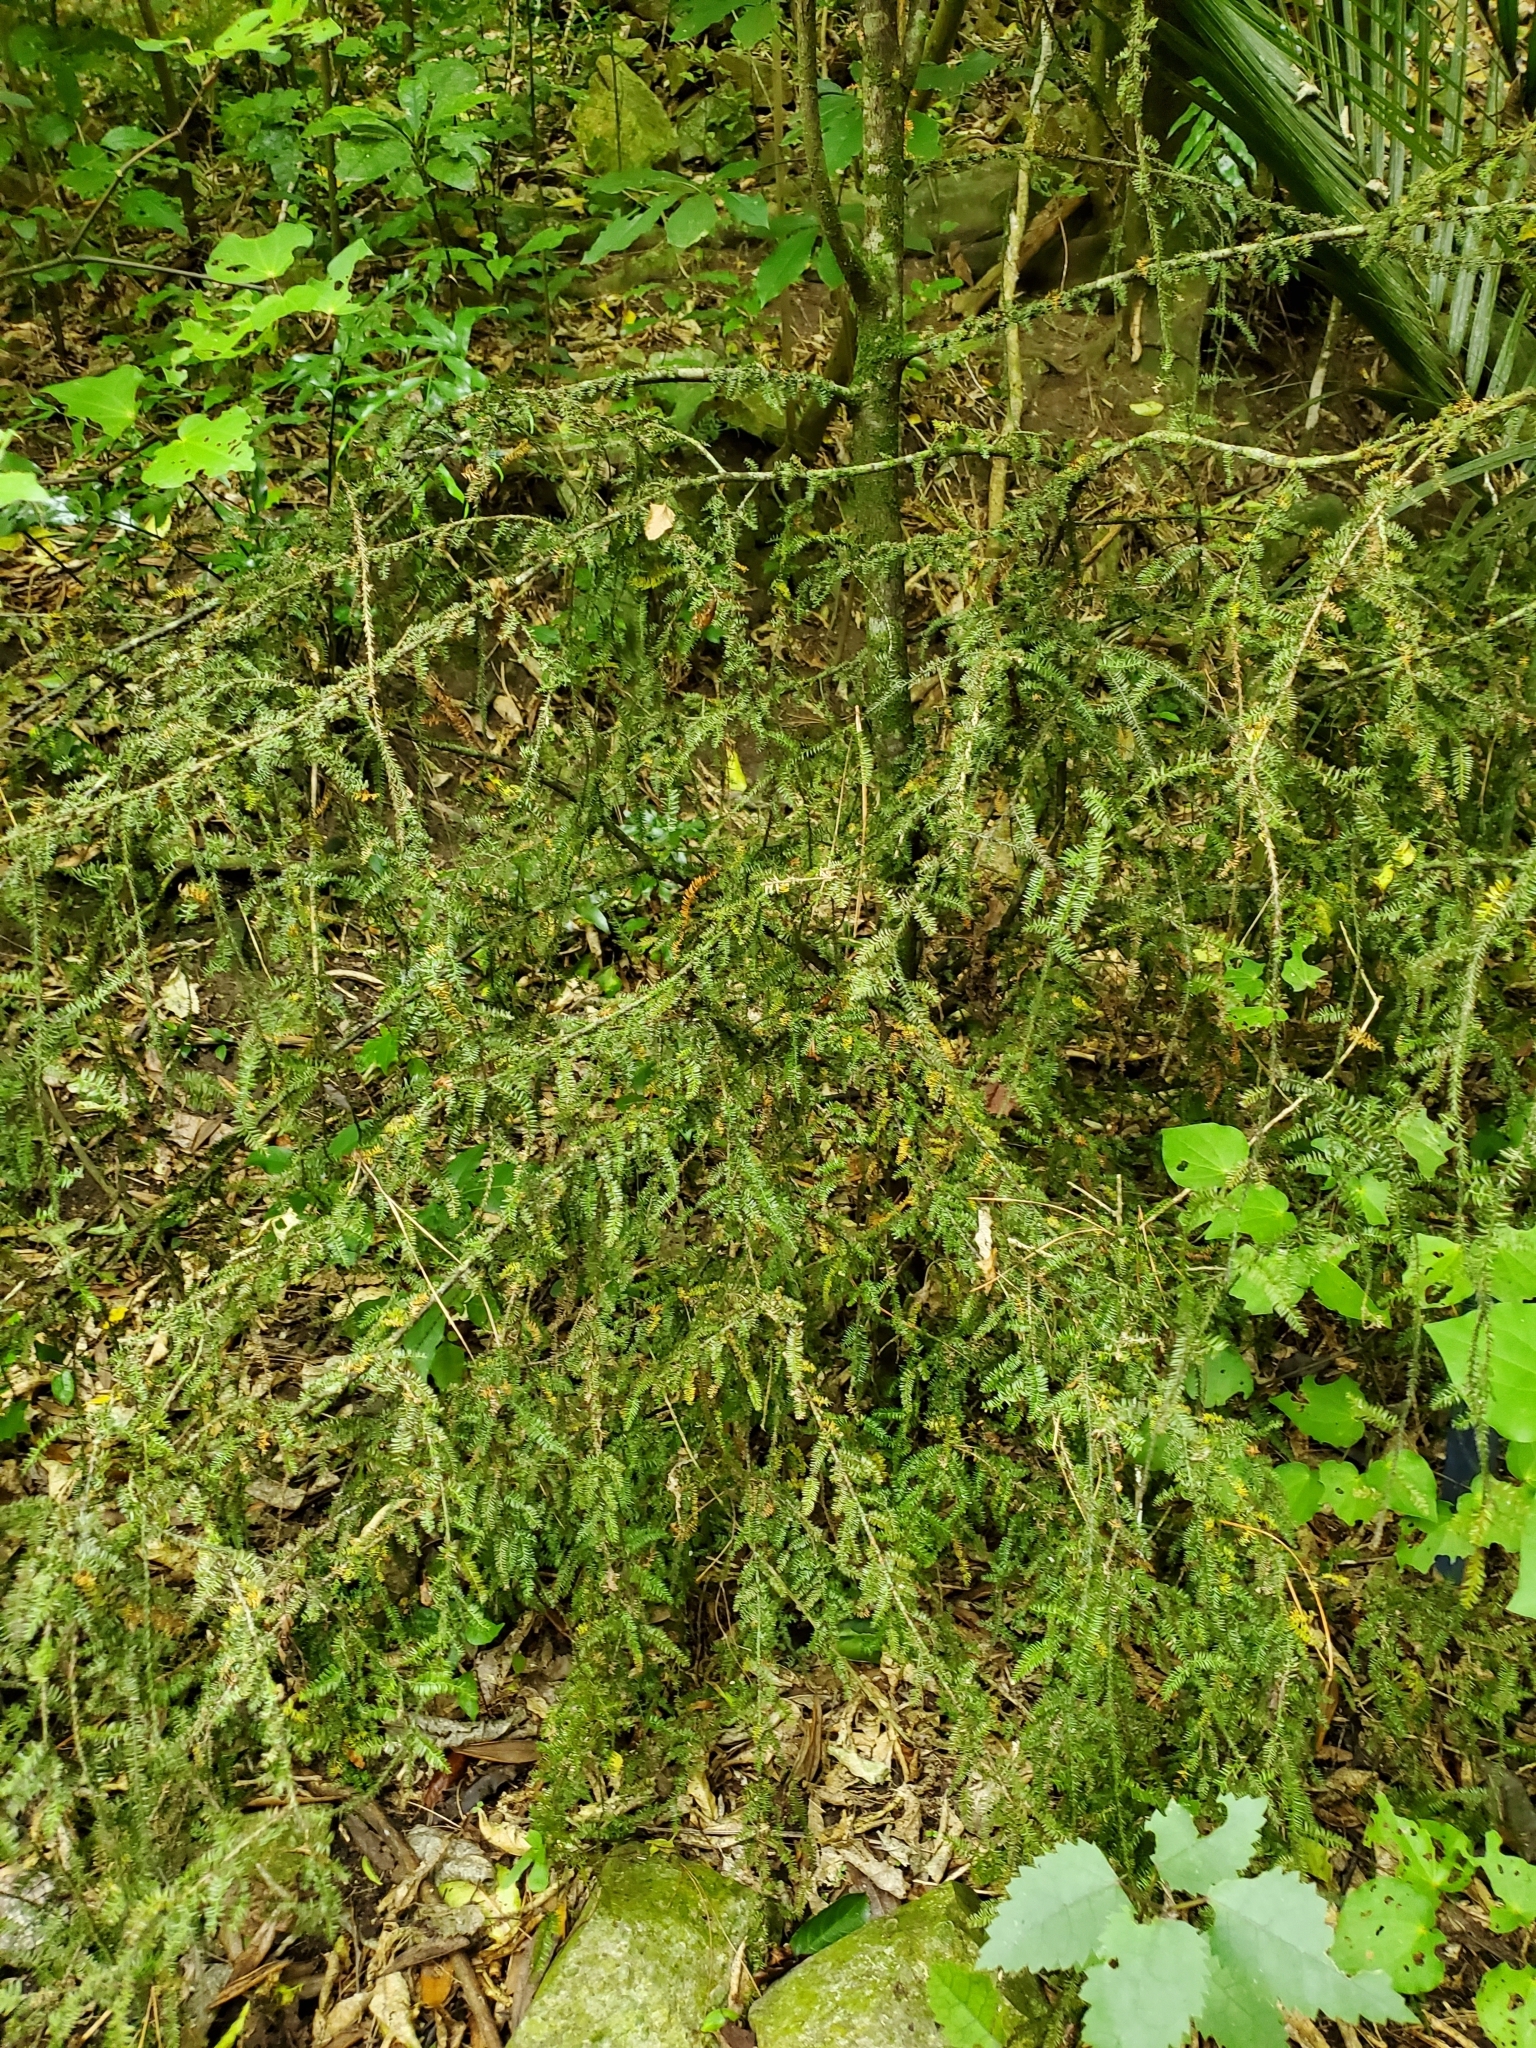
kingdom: Plantae
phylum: Tracheophyta
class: Pinopsida
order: Pinales
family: Podocarpaceae
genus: Dacrycarpus
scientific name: Dacrycarpus dacrydioides
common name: White pine
